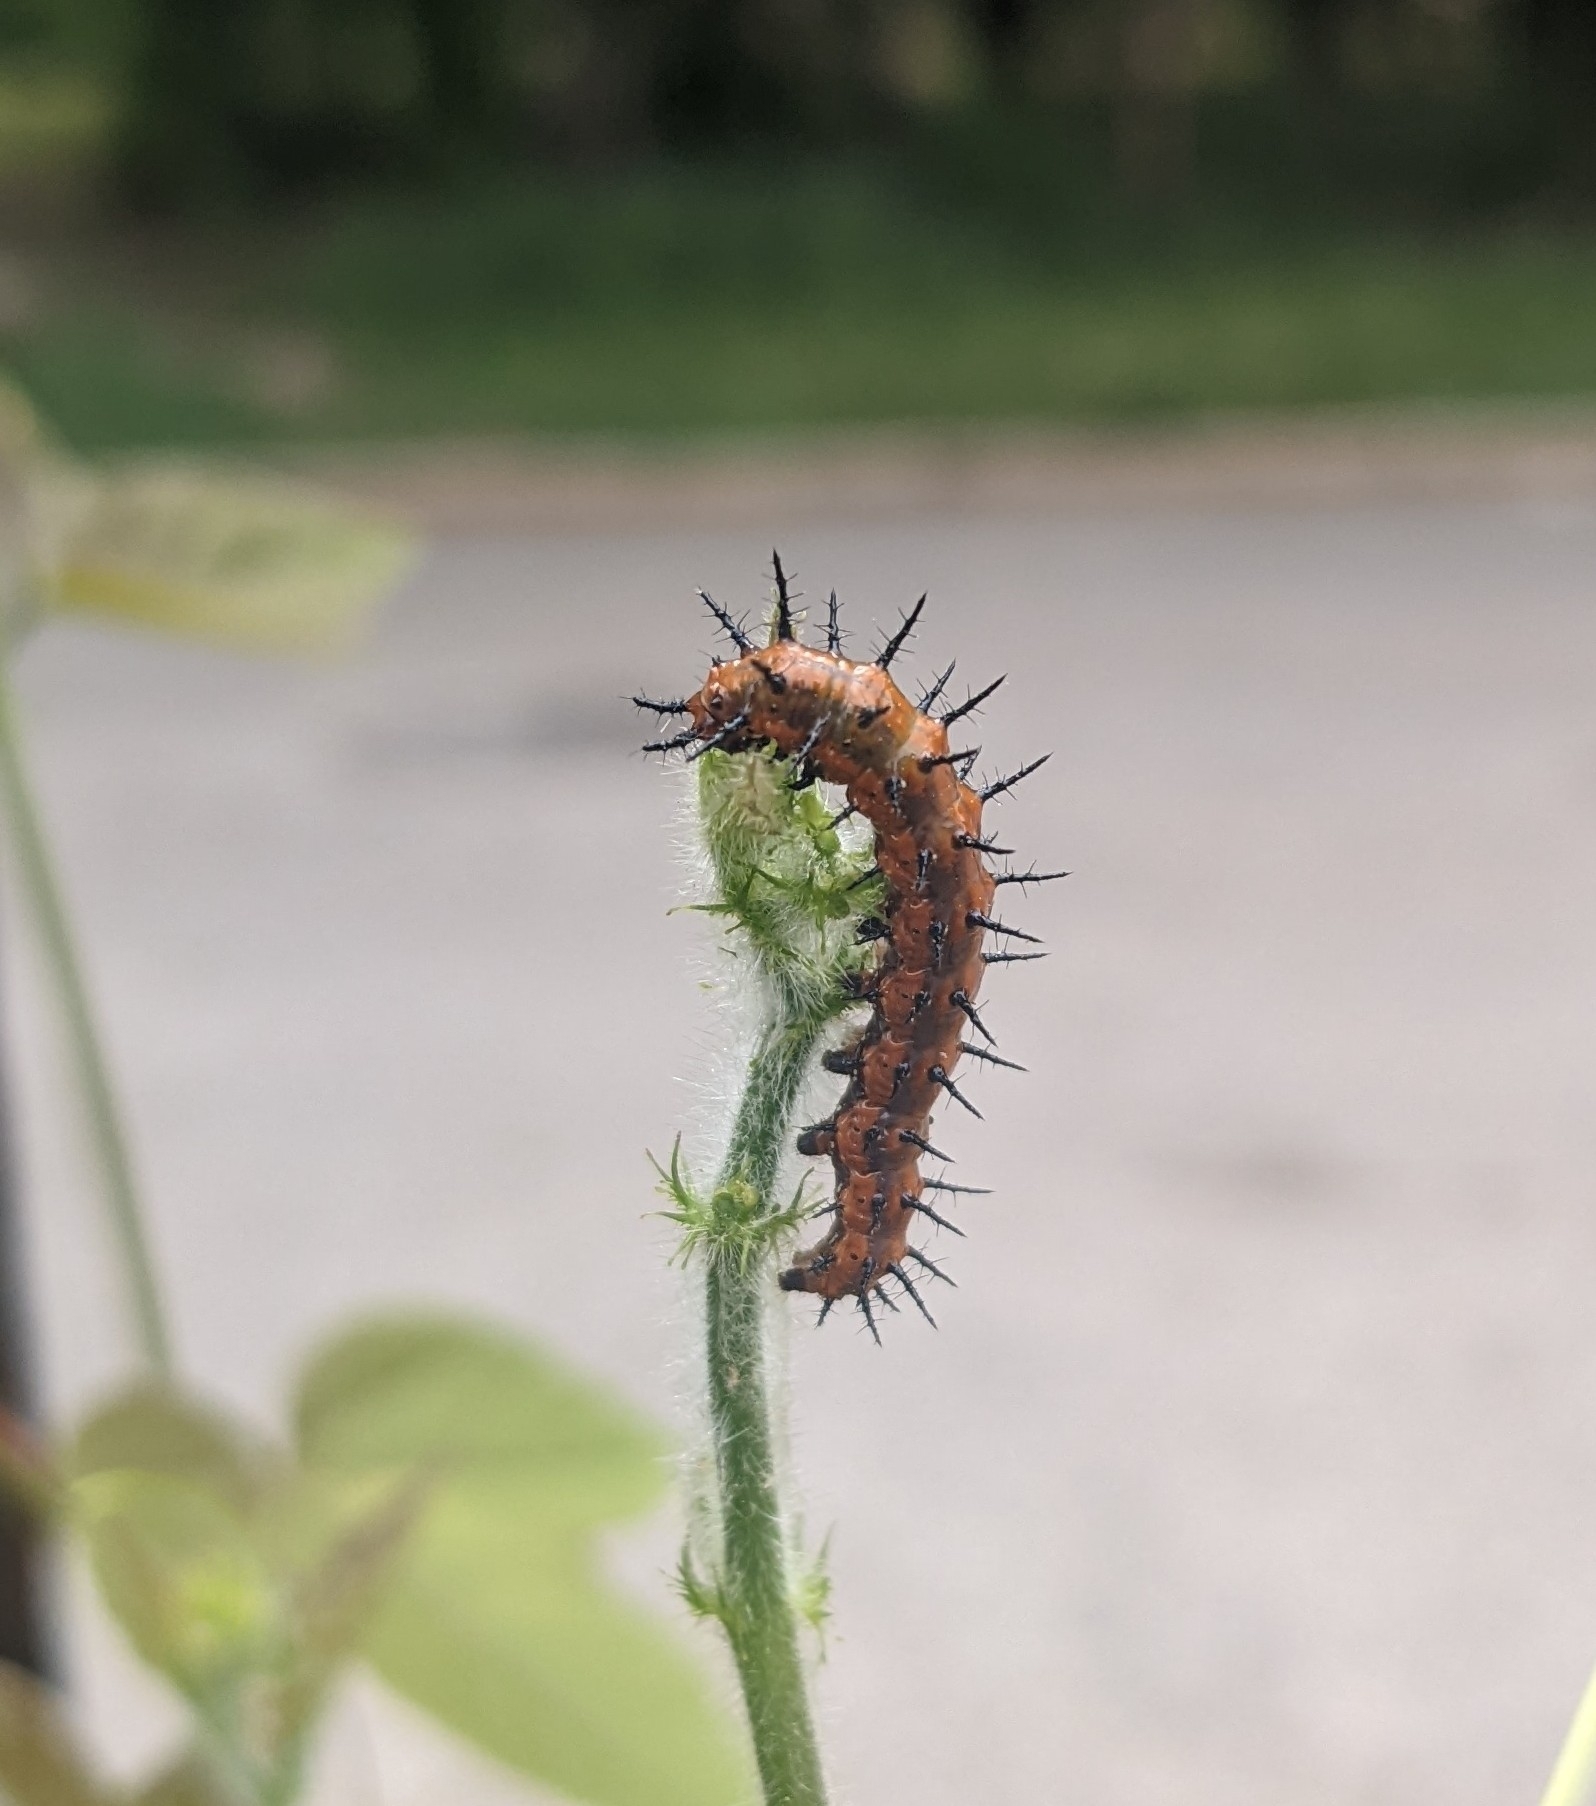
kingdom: Animalia
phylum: Arthropoda
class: Insecta
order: Lepidoptera
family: Nymphalidae
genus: Dione
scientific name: Dione vanillae
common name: Gulf fritillary
